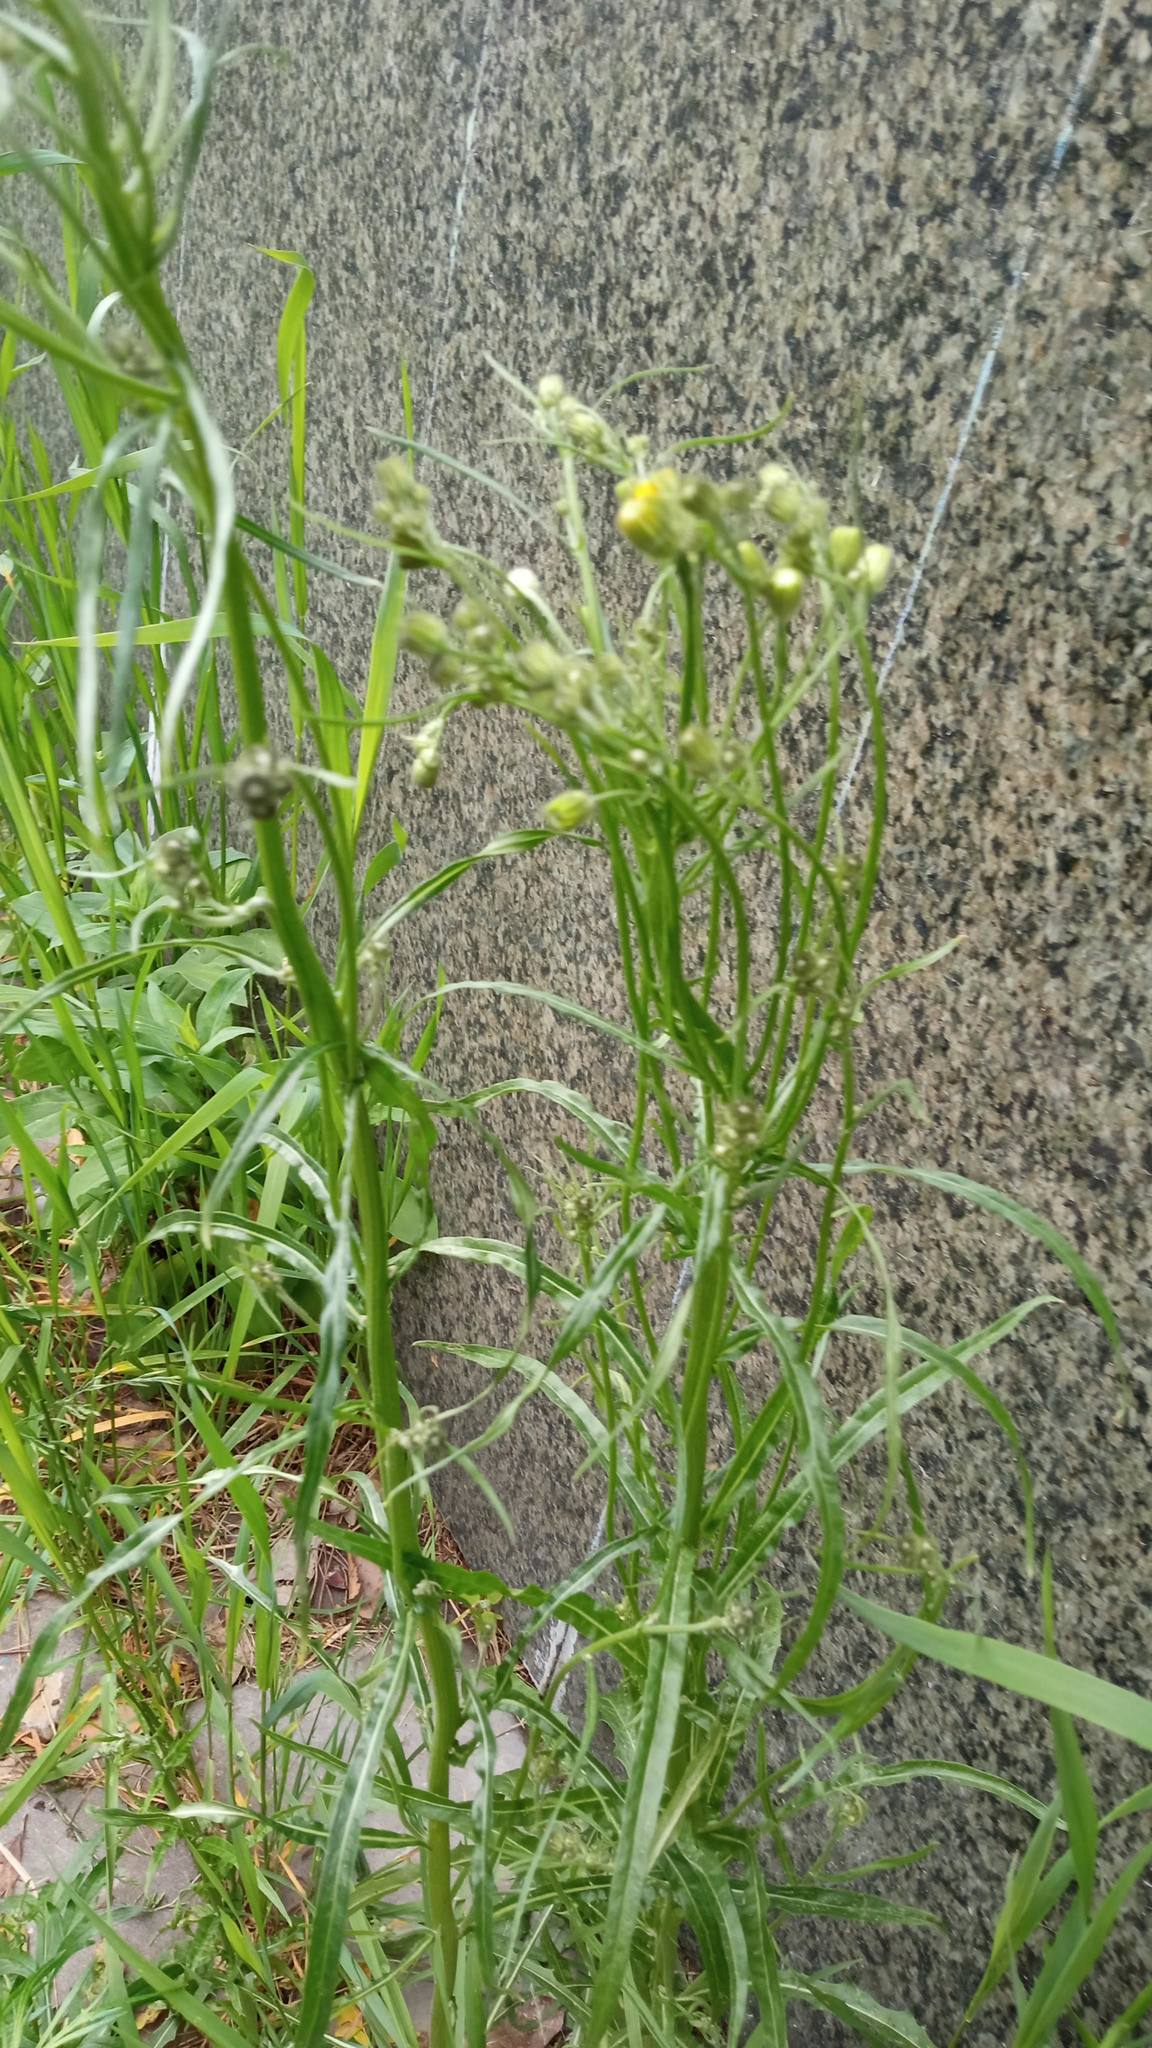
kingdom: Plantae
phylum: Tracheophyta
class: Magnoliopsida
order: Asterales
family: Asteraceae
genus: Crepis
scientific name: Crepis tectorum
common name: Narrow-leaved hawk's-beard
